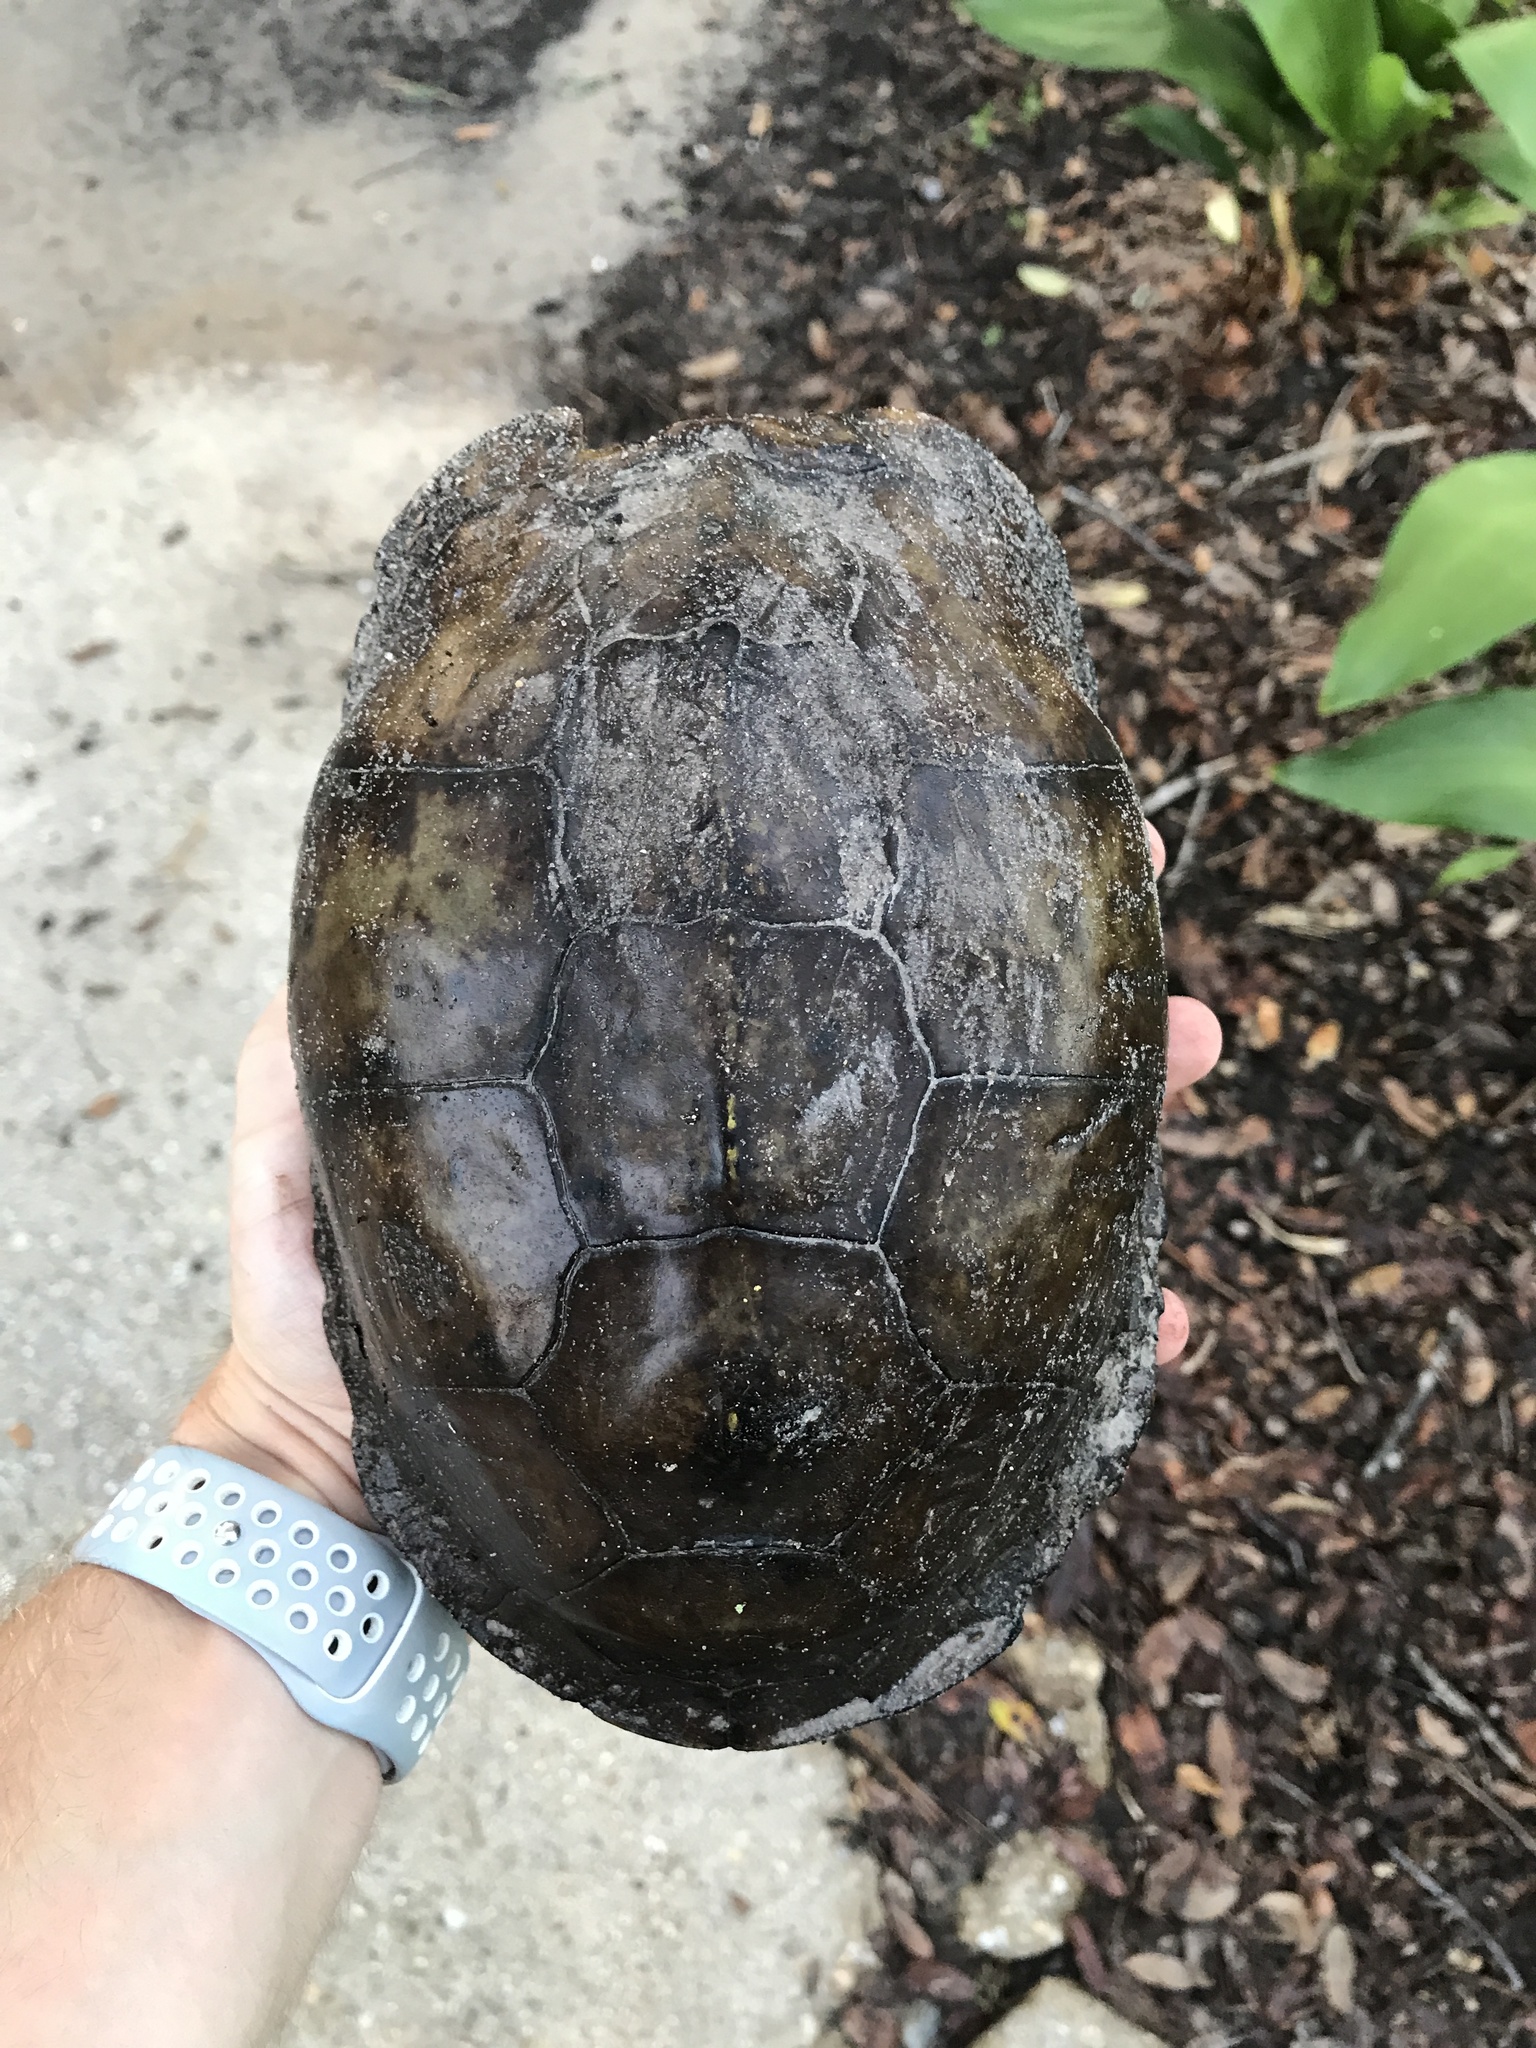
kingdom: Animalia
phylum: Chordata
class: Testudines
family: Emydidae
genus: Terrapene
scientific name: Terrapene carolina
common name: Common box turtle
